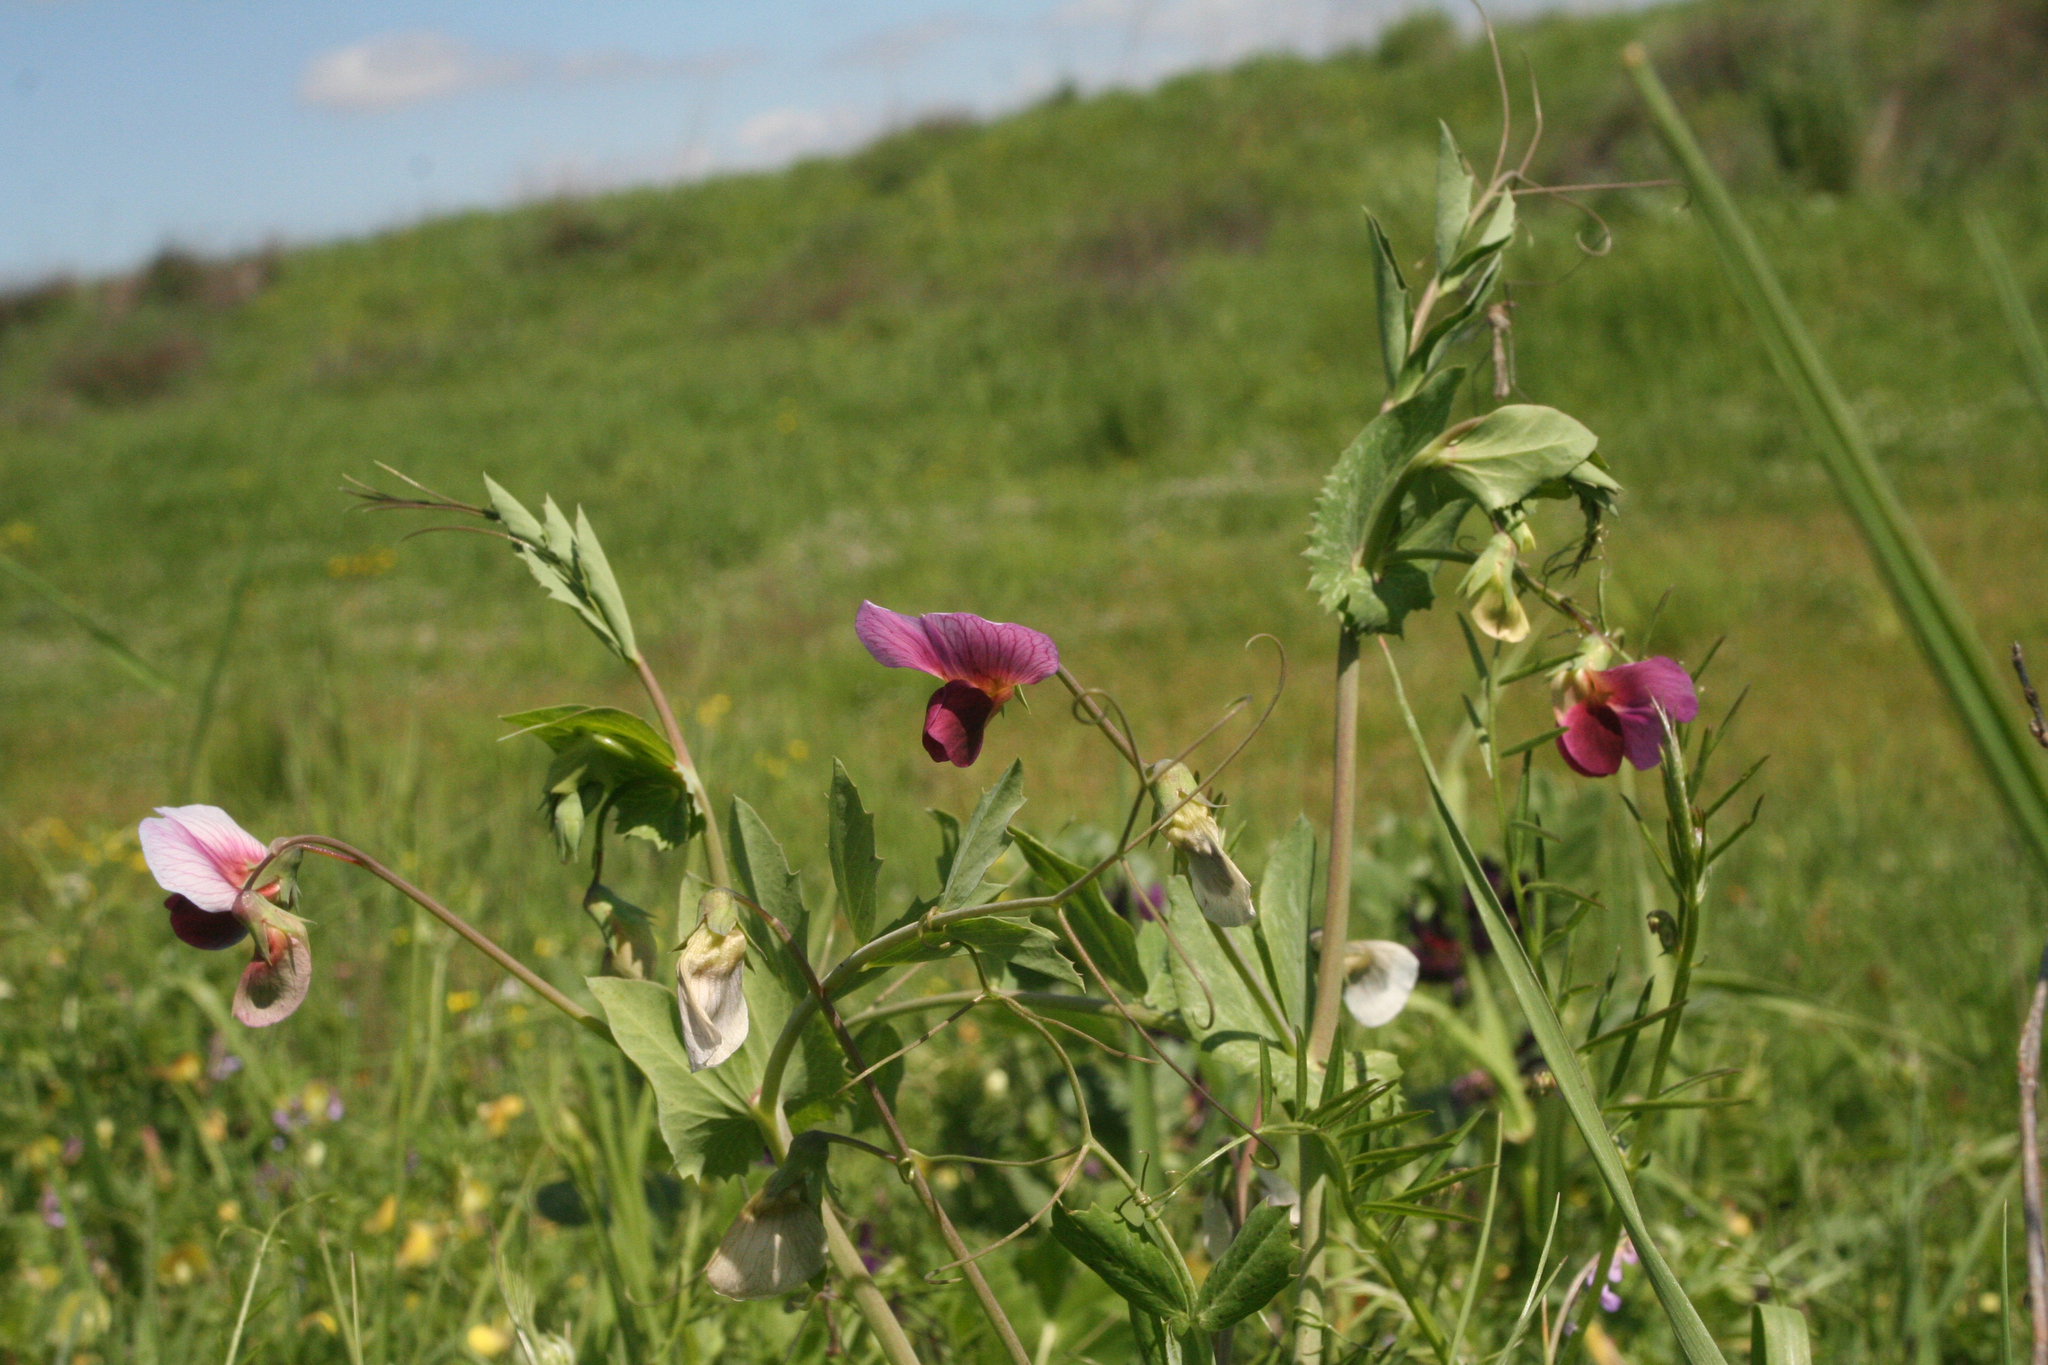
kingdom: Plantae
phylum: Tracheophyta
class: Magnoliopsida
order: Fabales
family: Fabaceae
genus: Lathyrus
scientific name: Lathyrus oleraceus
